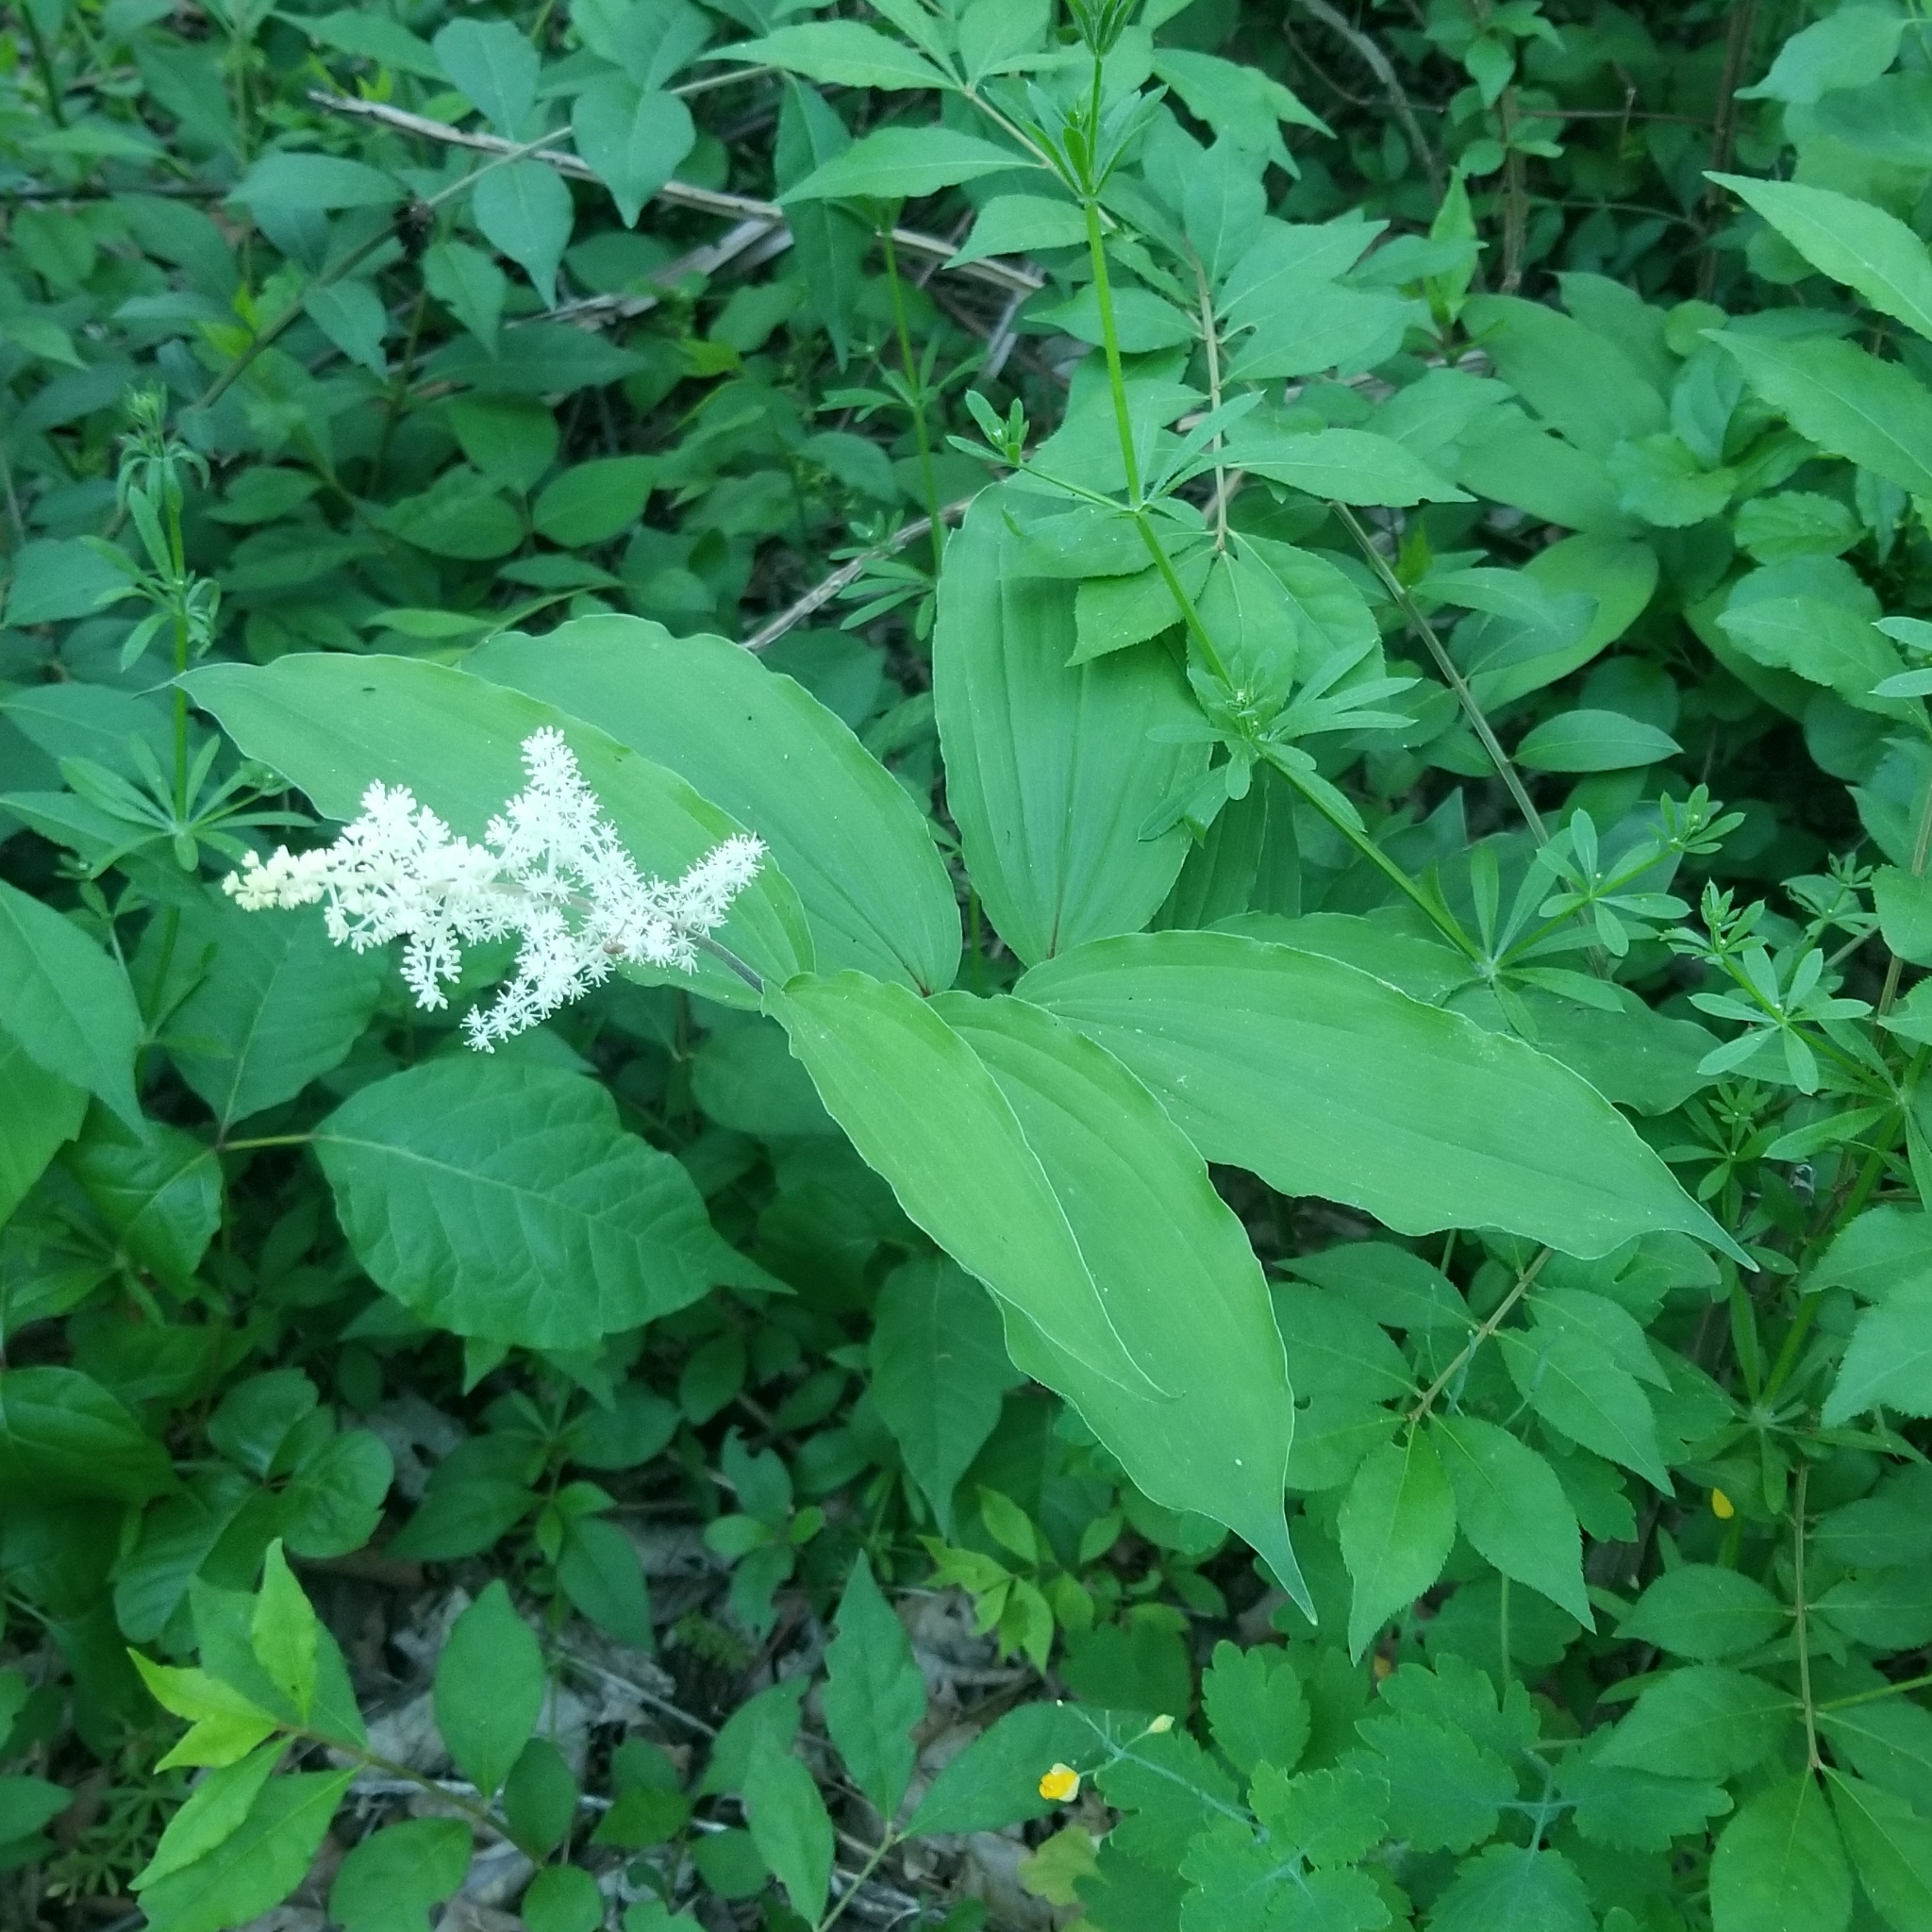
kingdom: Plantae
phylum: Tracheophyta
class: Liliopsida
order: Asparagales
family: Asparagaceae
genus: Maianthemum
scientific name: Maianthemum racemosum
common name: False spikenard
